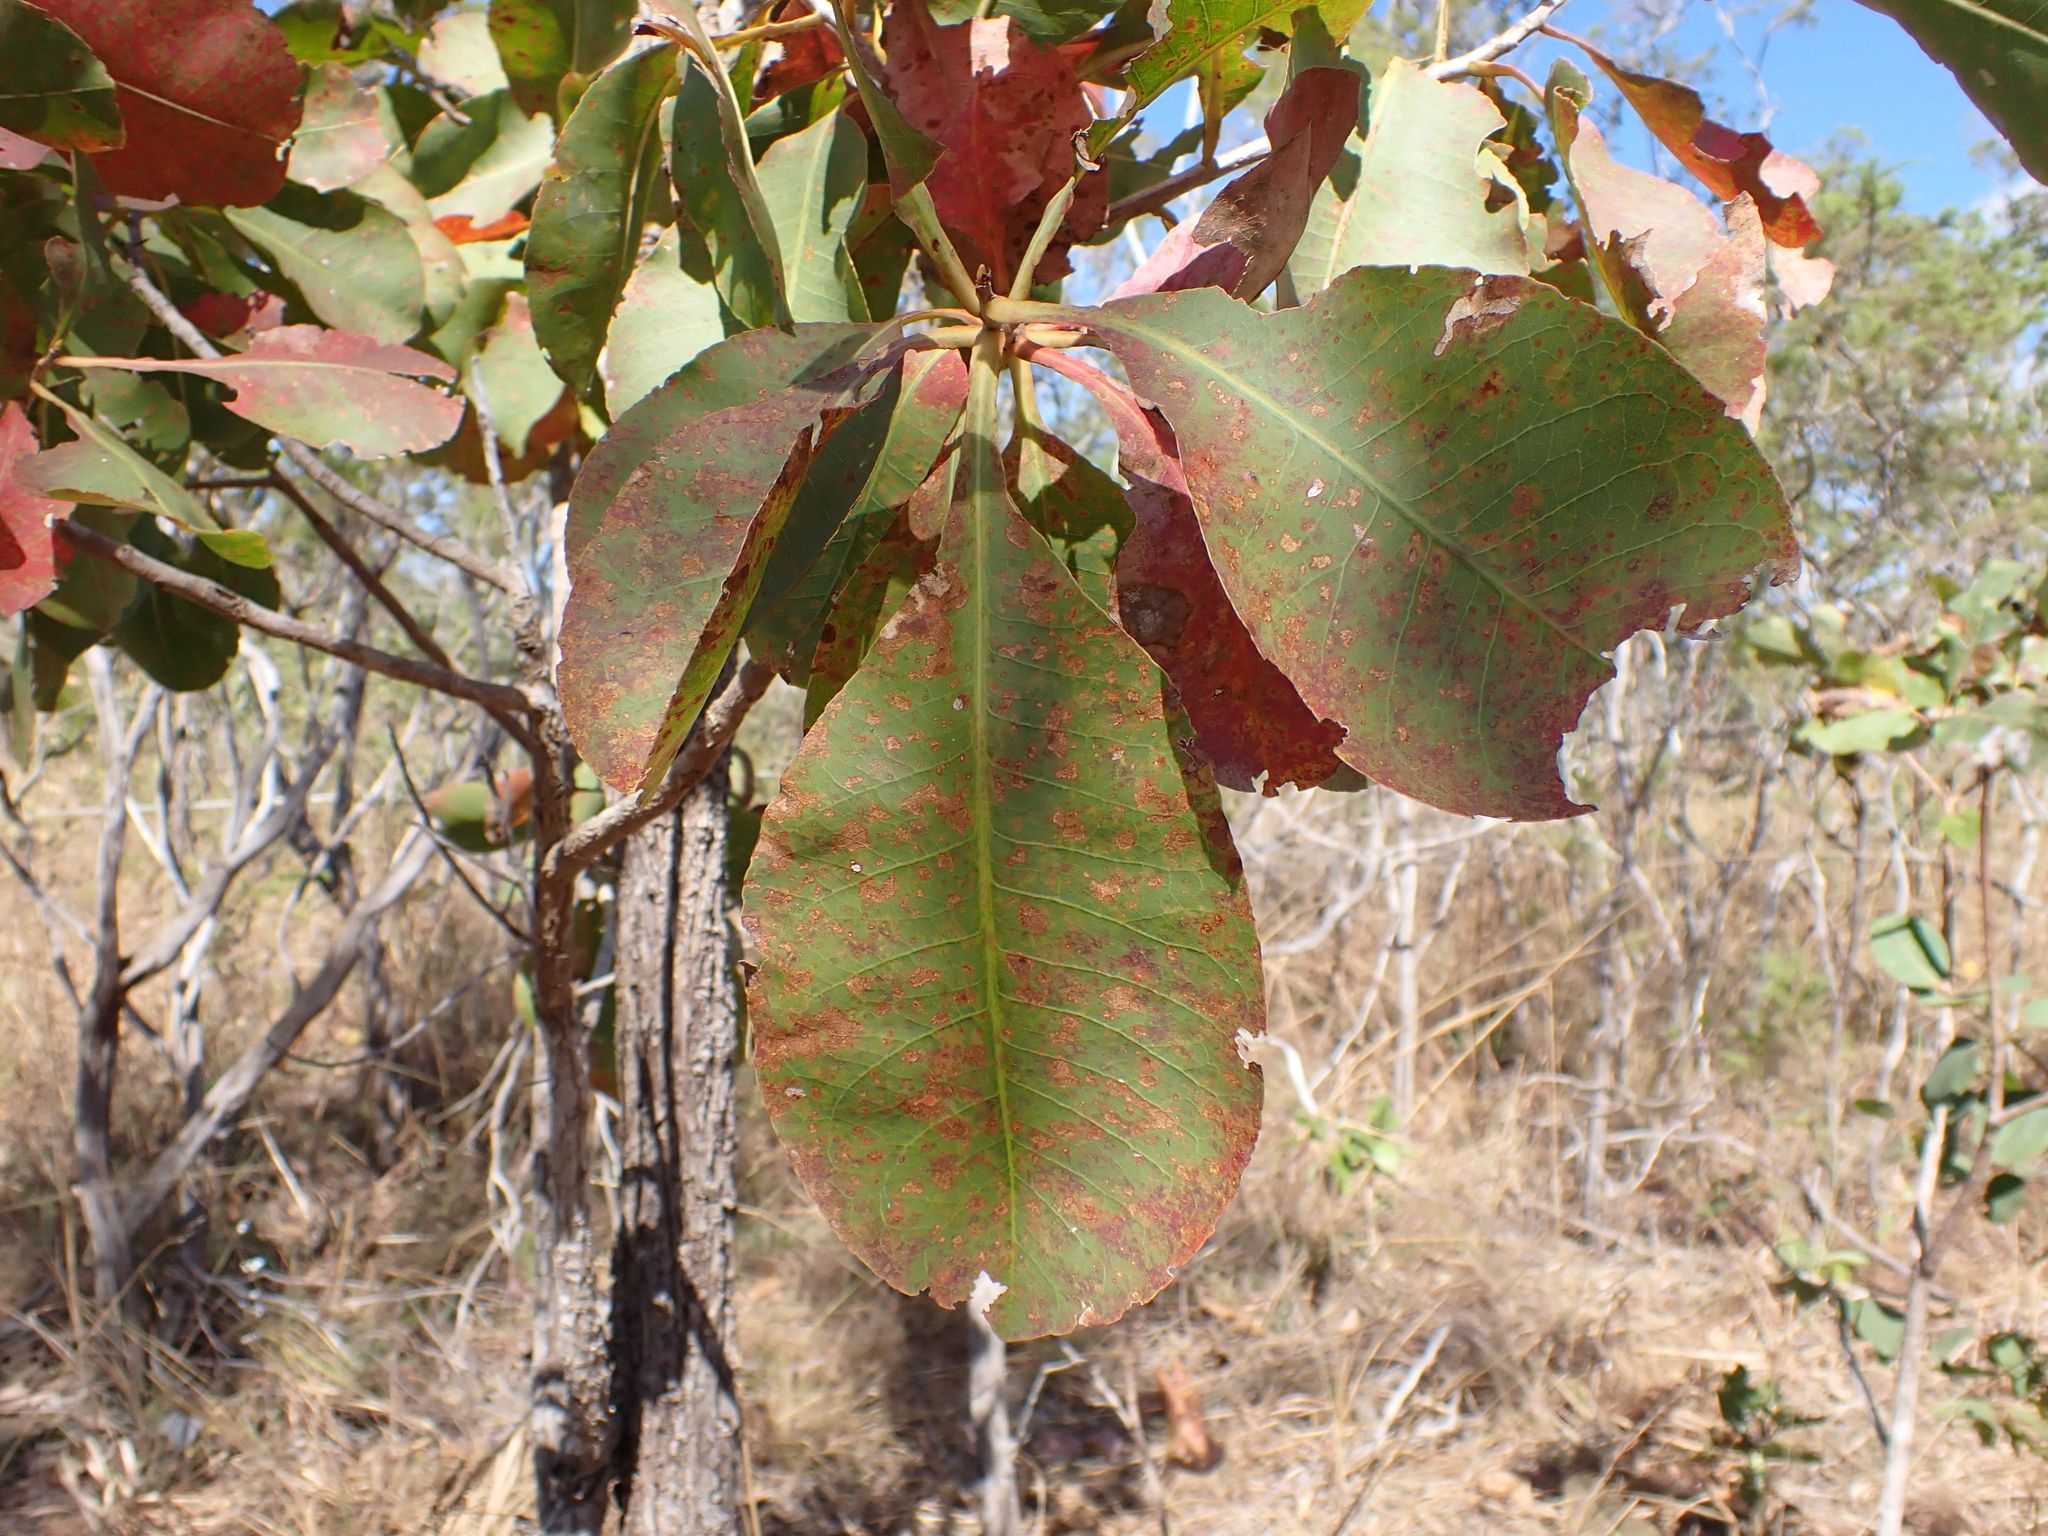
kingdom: Plantae
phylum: Tracheophyta
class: Magnoliopsida
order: Ericales
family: Lecythidaceae
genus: Planchonia
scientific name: Planchonia careya
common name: Cockatoo-apple
